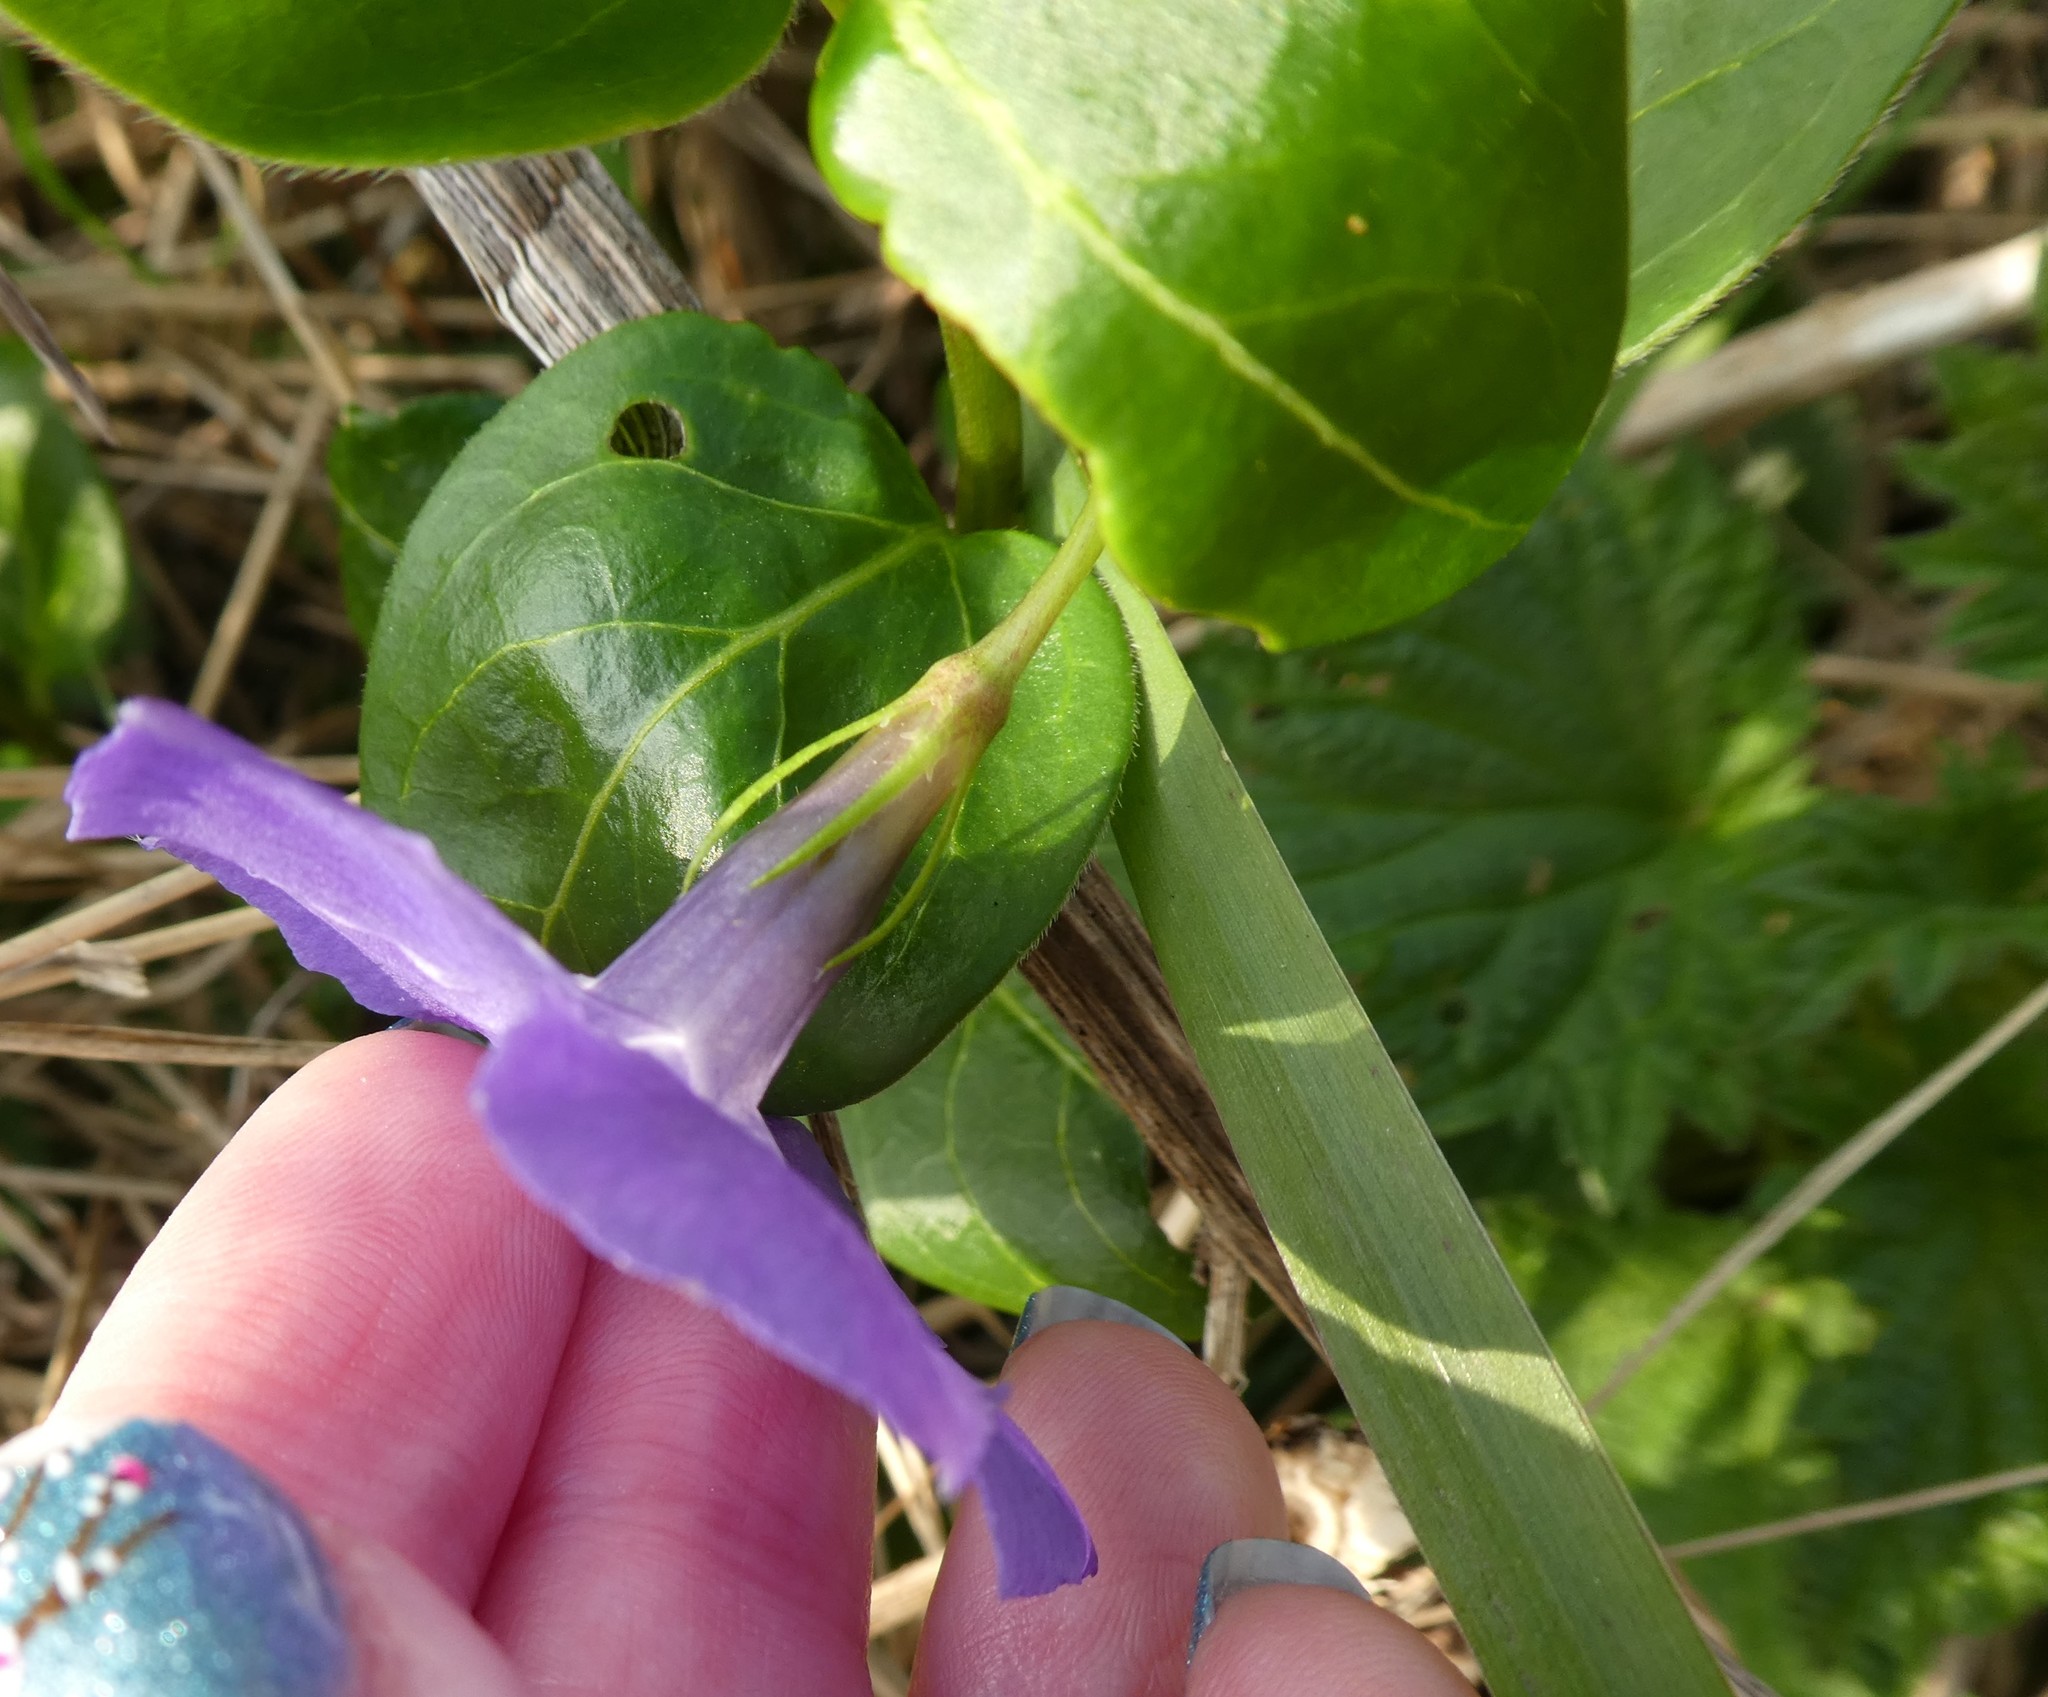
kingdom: Plantae
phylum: Tracheophyta
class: Magnoliopsida
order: Gentianales
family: Apocynaceae
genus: Vinca
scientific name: Vinca major
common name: Greater periwinkle
